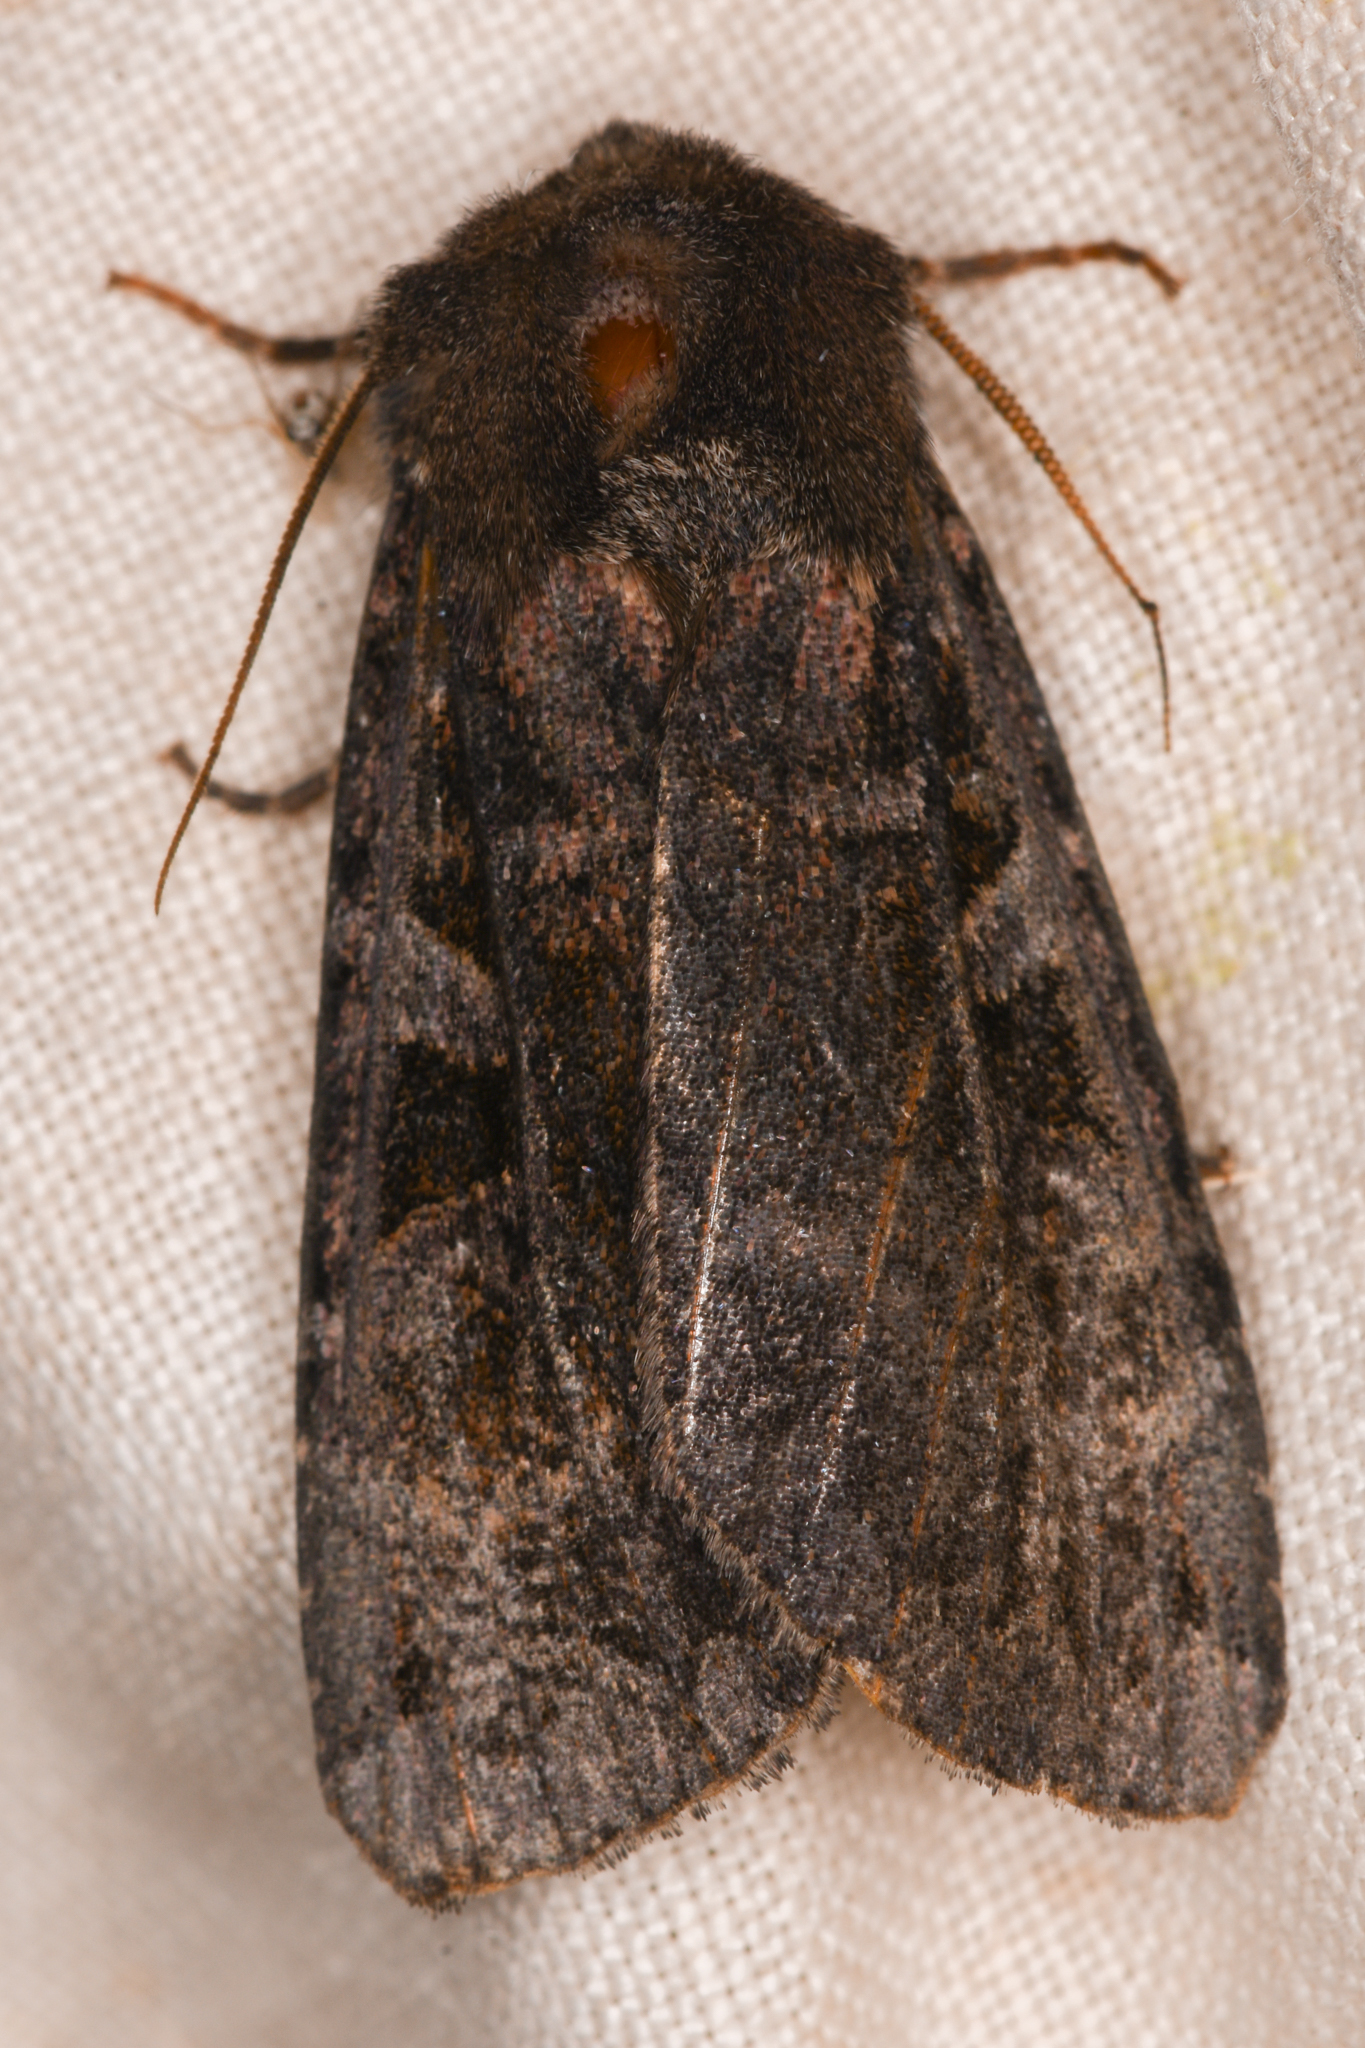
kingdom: Animalia
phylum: Arthropoda
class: Insecta
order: Lepidoptera
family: Noctuidae
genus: Eurois
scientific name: Eurois astricta
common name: Great brown dart
